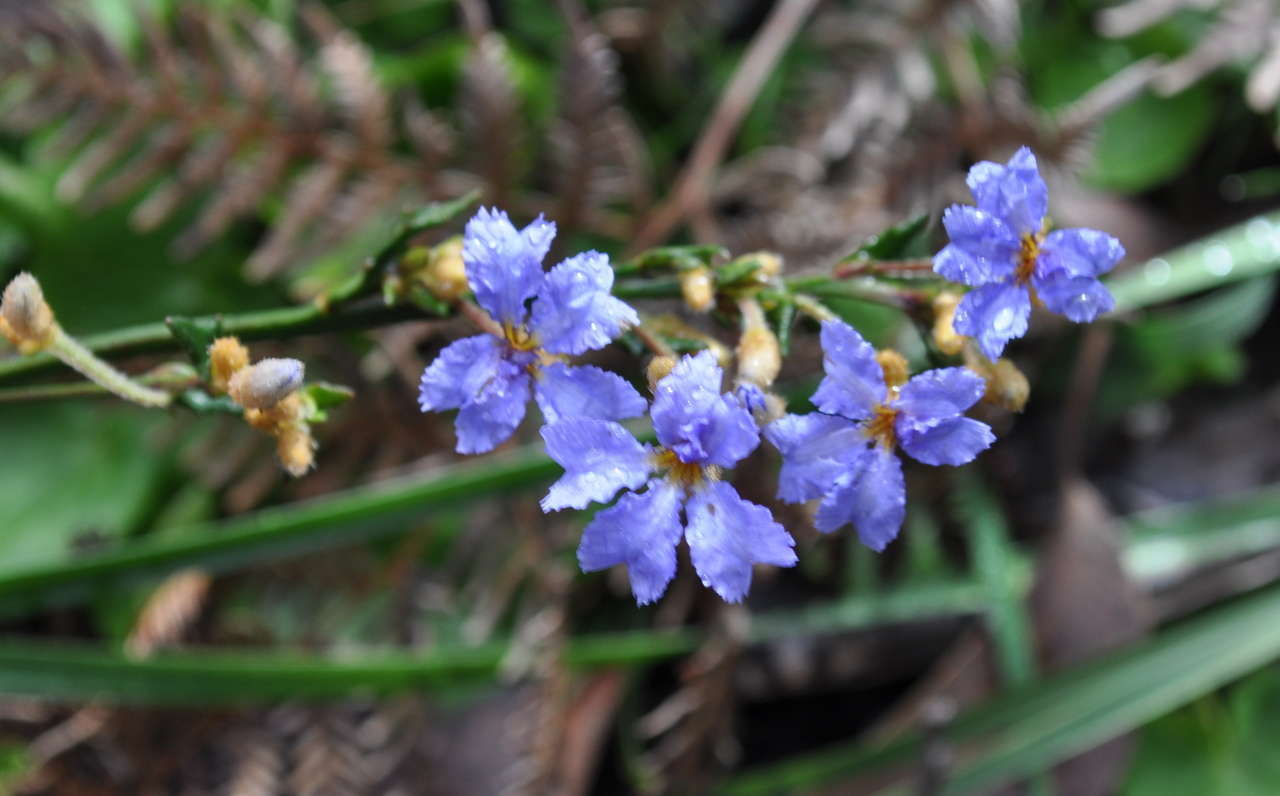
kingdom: Plantae
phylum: Tracheophyta
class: Magnoliopsida
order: Asterales
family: Goodeniaceae
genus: Dampiera
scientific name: Dampiera stricta
